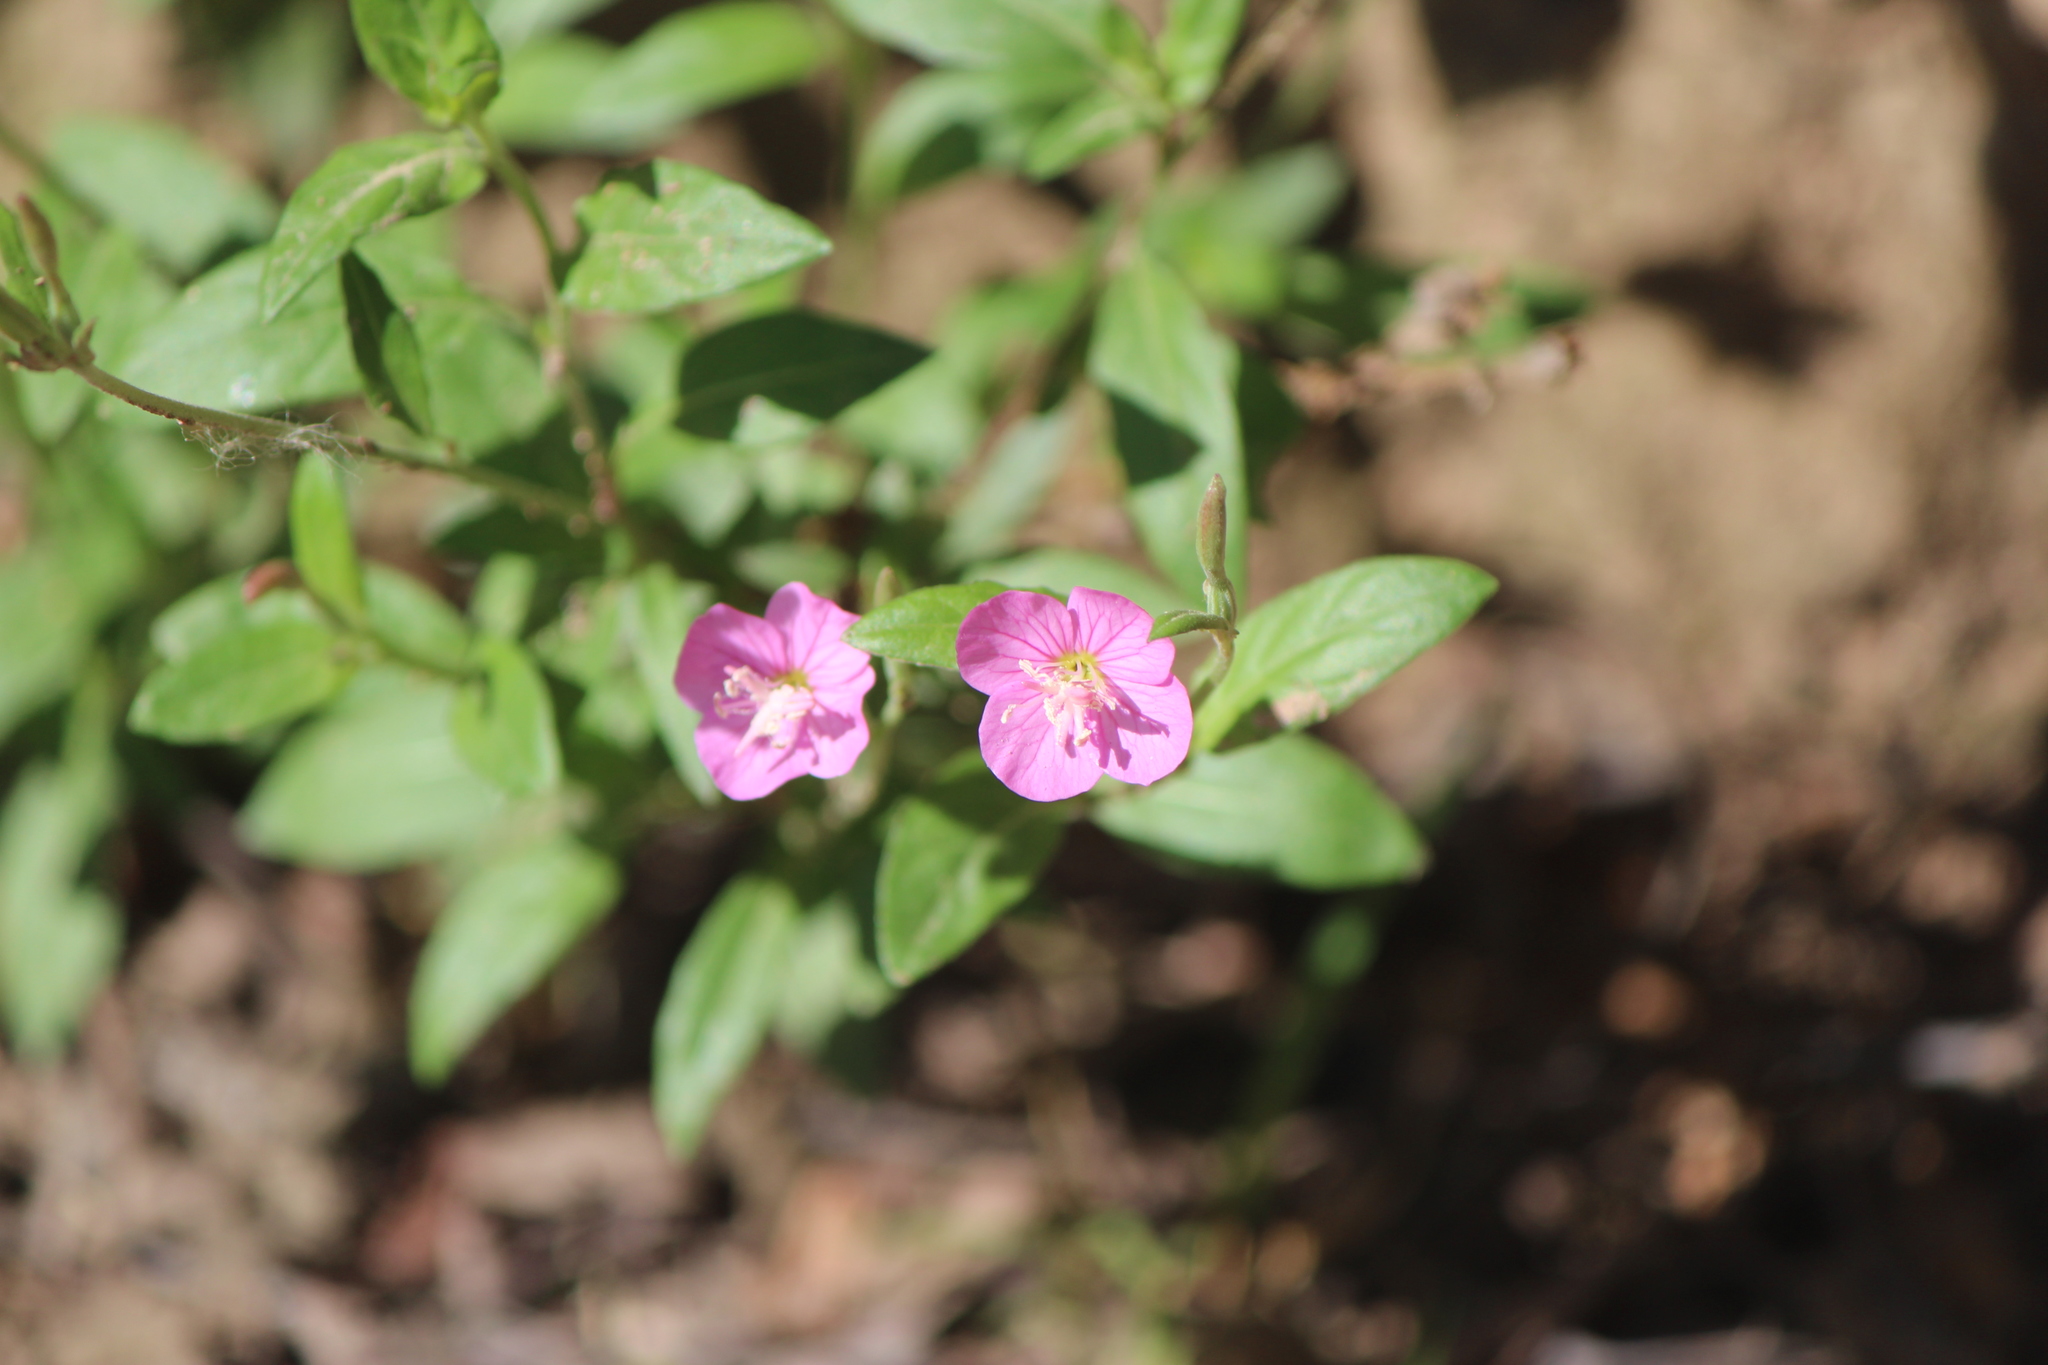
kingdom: Plantae
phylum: Tracheophyta
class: Magnoliopsida
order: Myrtales
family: Onagraceae
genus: Oenothera
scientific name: Oenothera rosea
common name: Rosy evening-primrose
